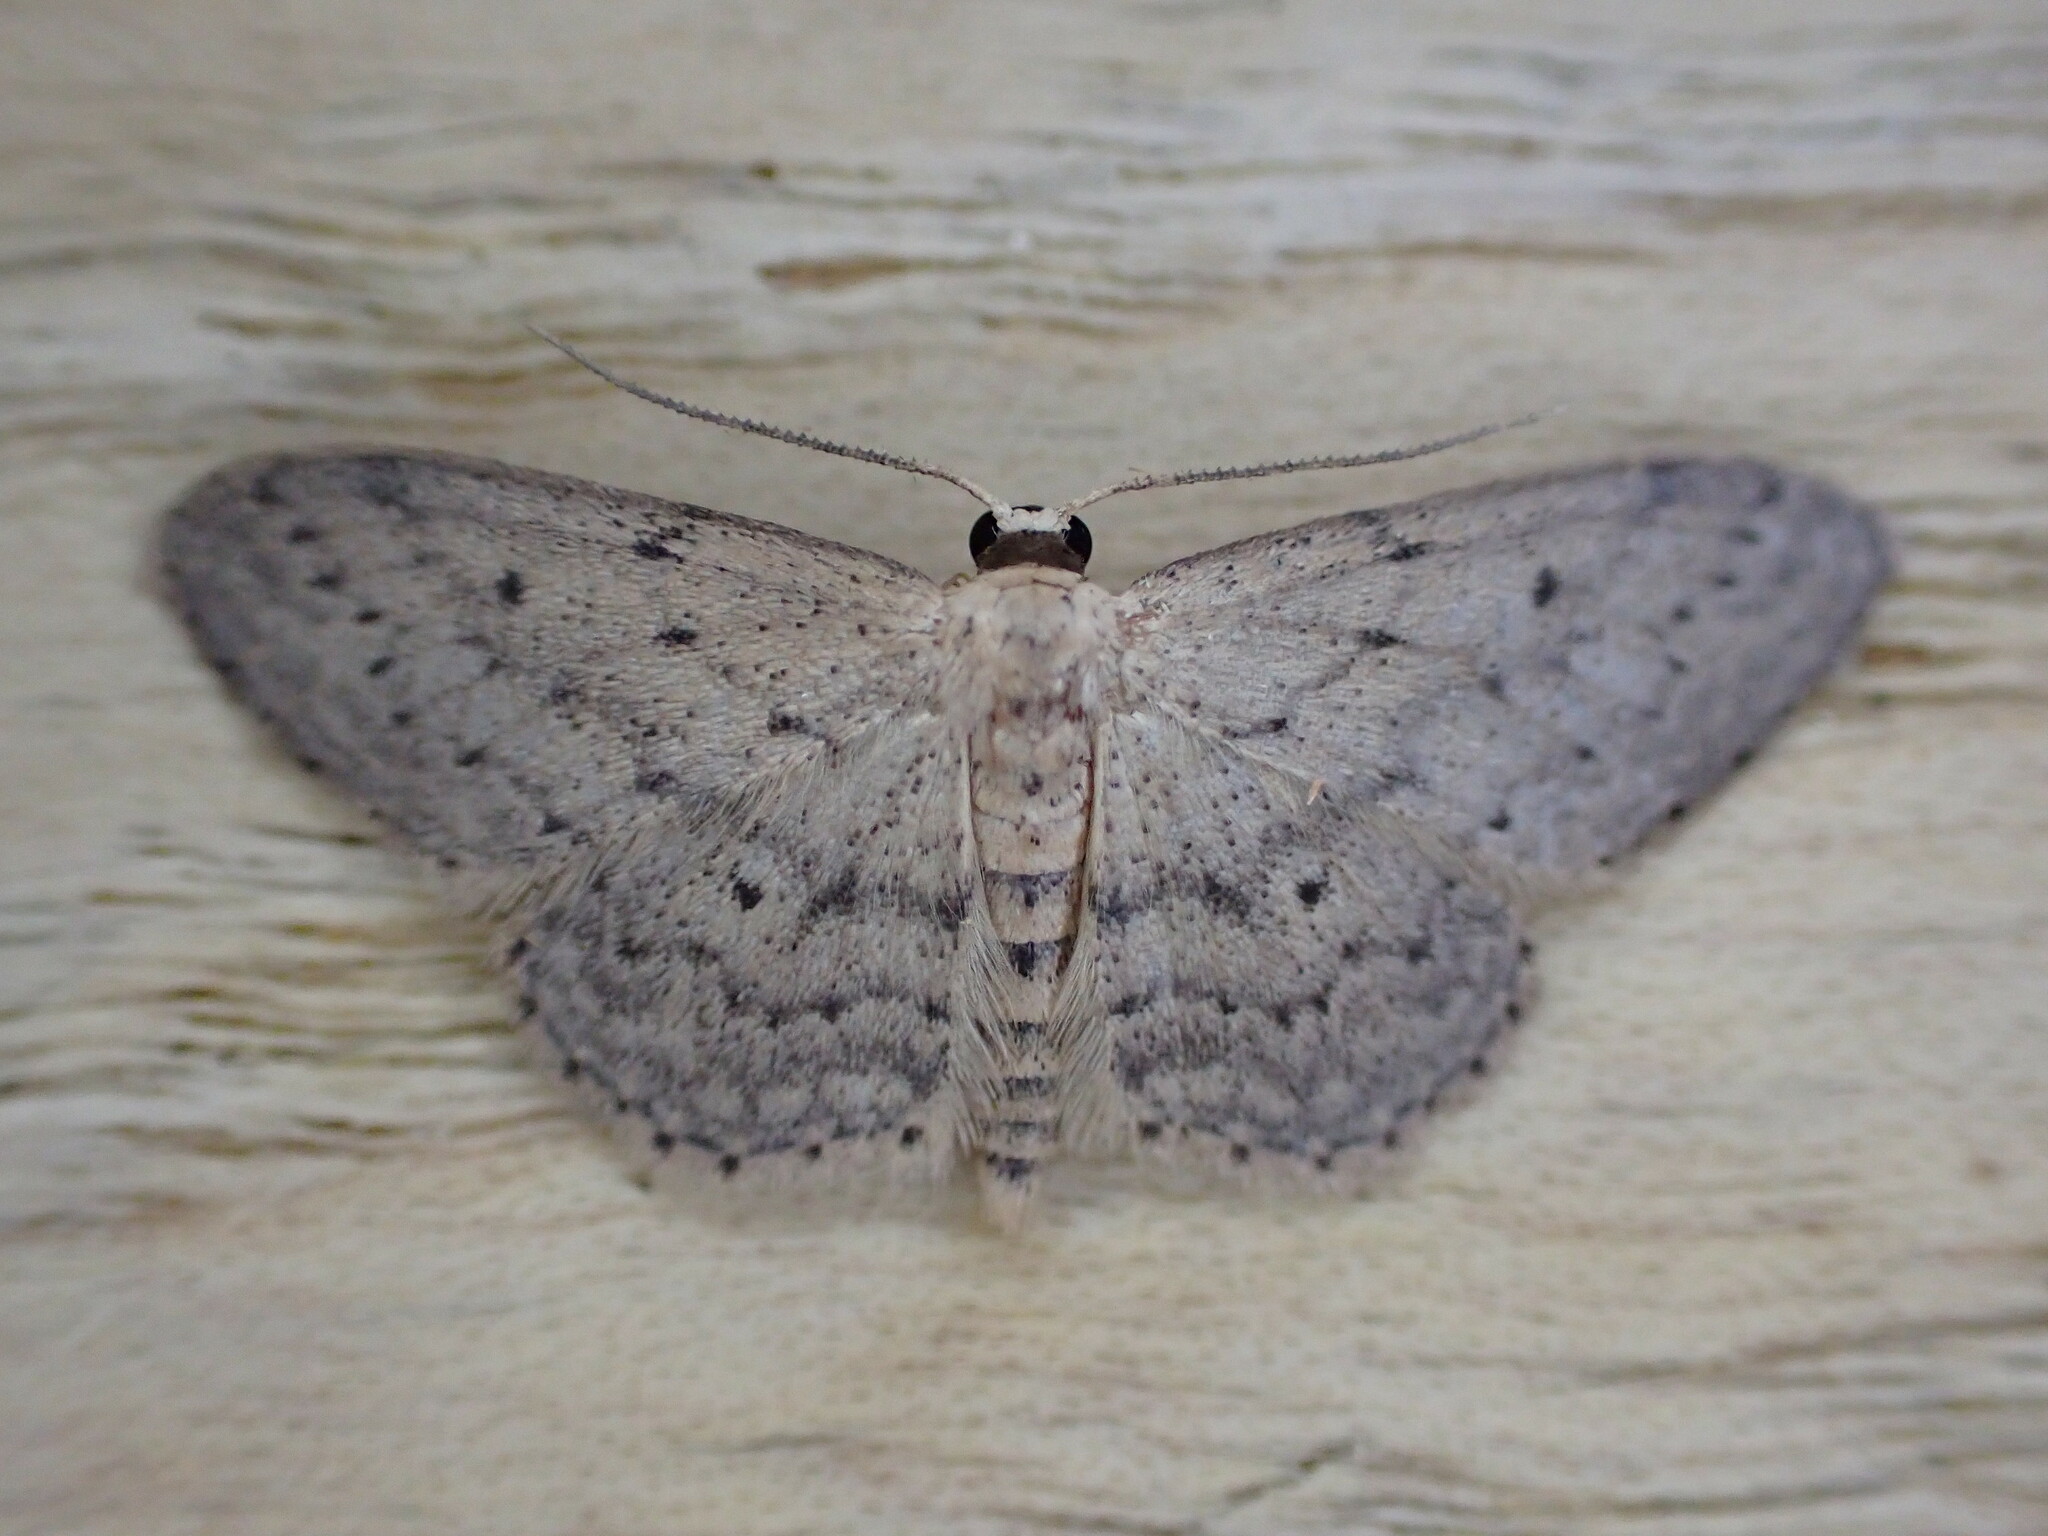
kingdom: Animalia
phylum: Arthropoda
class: Insecta
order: Lepidoptera
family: Geometridae
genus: Idaea
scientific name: Idaea seriata
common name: Small dusty wave
